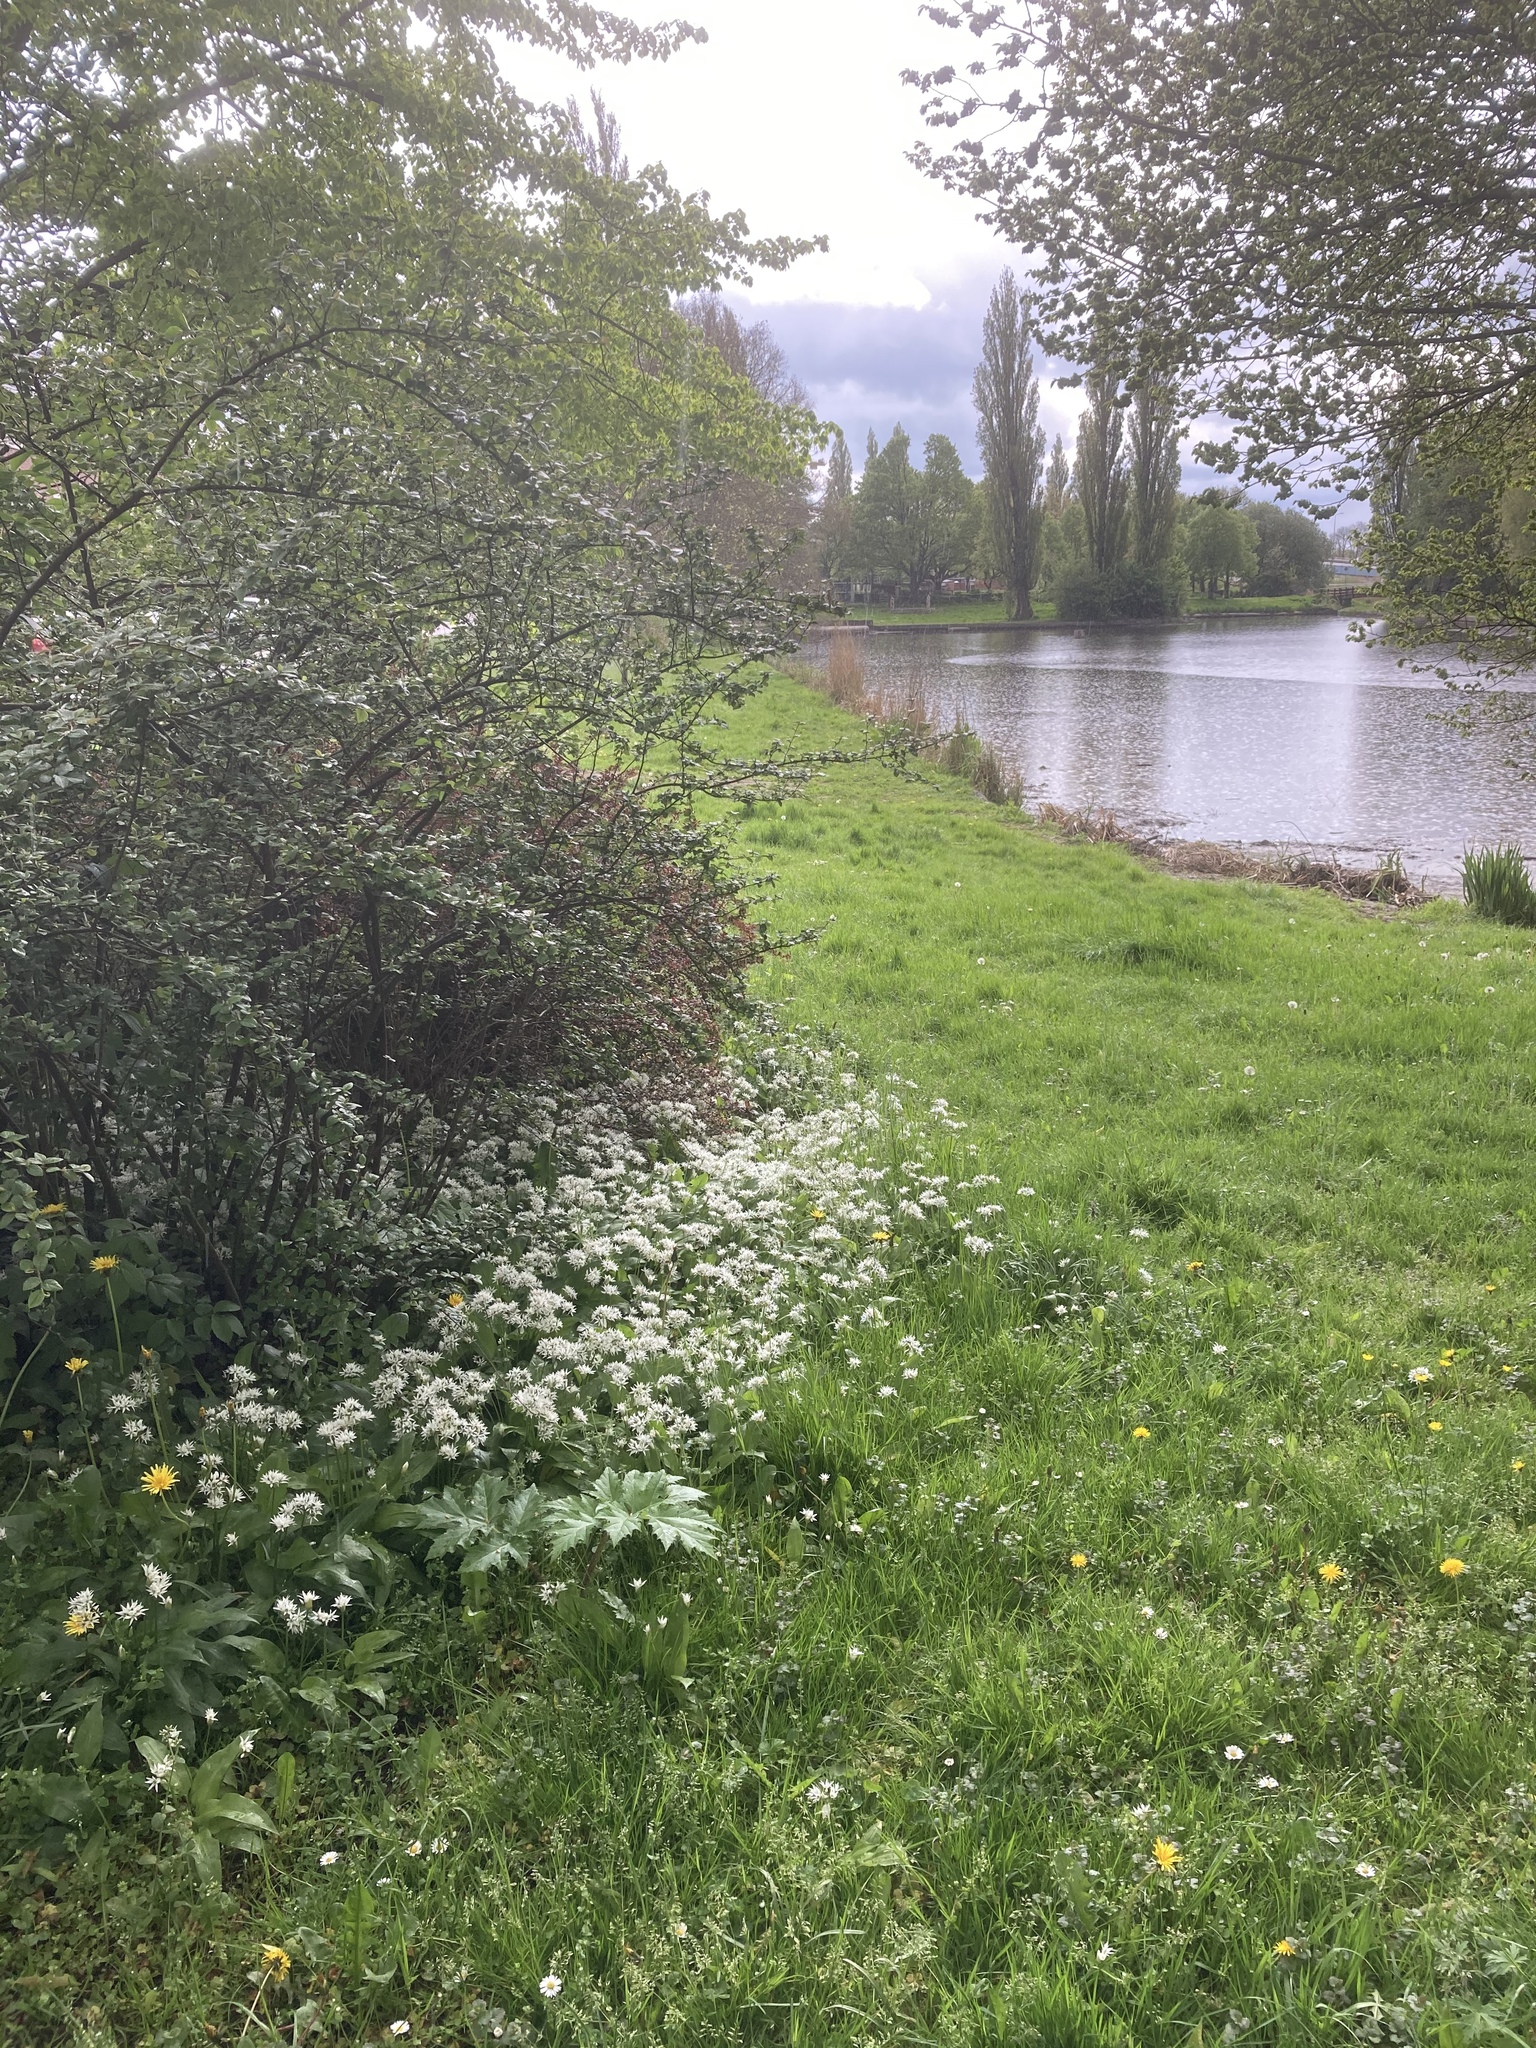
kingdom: Plantae
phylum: Tracheophyta
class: Liliopsida
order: Asparagales
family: Amaryllidaceae
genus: Allium
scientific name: Allium ursinum
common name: Ramsons
